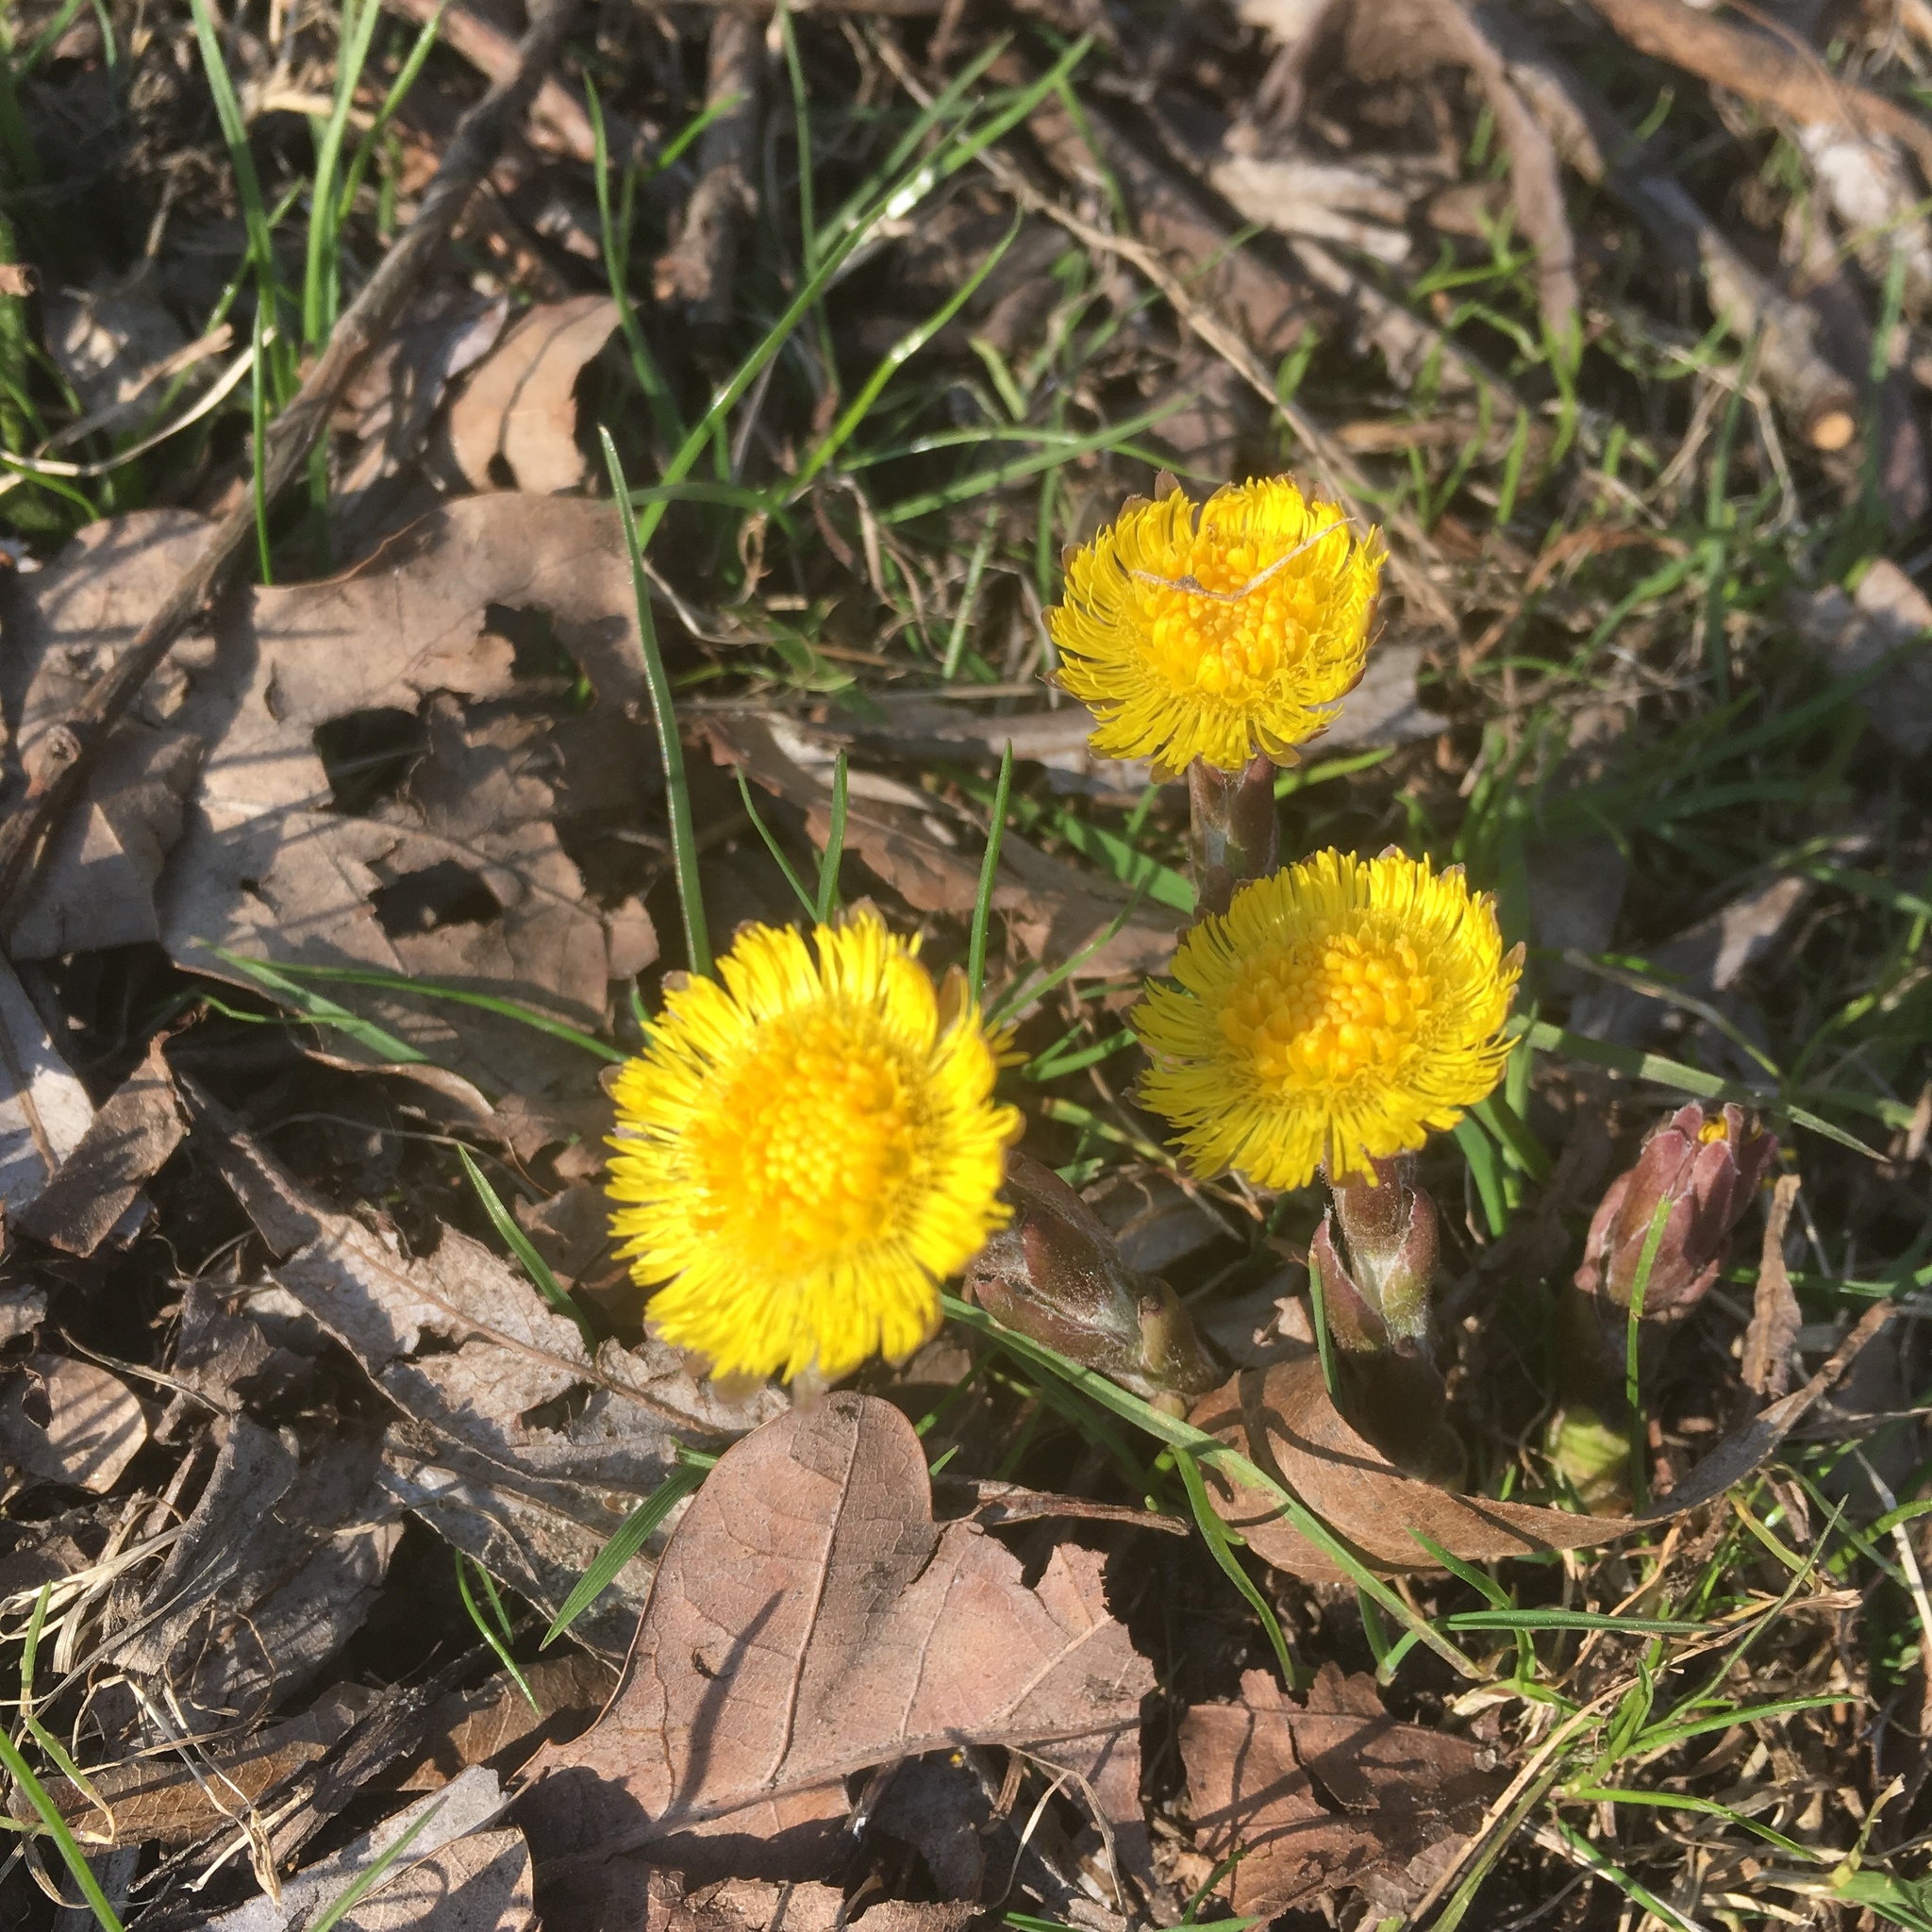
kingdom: Plantae
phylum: Tracheophyta
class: Magnoliopsida
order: Asterales
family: Asteraceae
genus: Tussilago
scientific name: Tussilago farfara
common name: Coltsfoot
